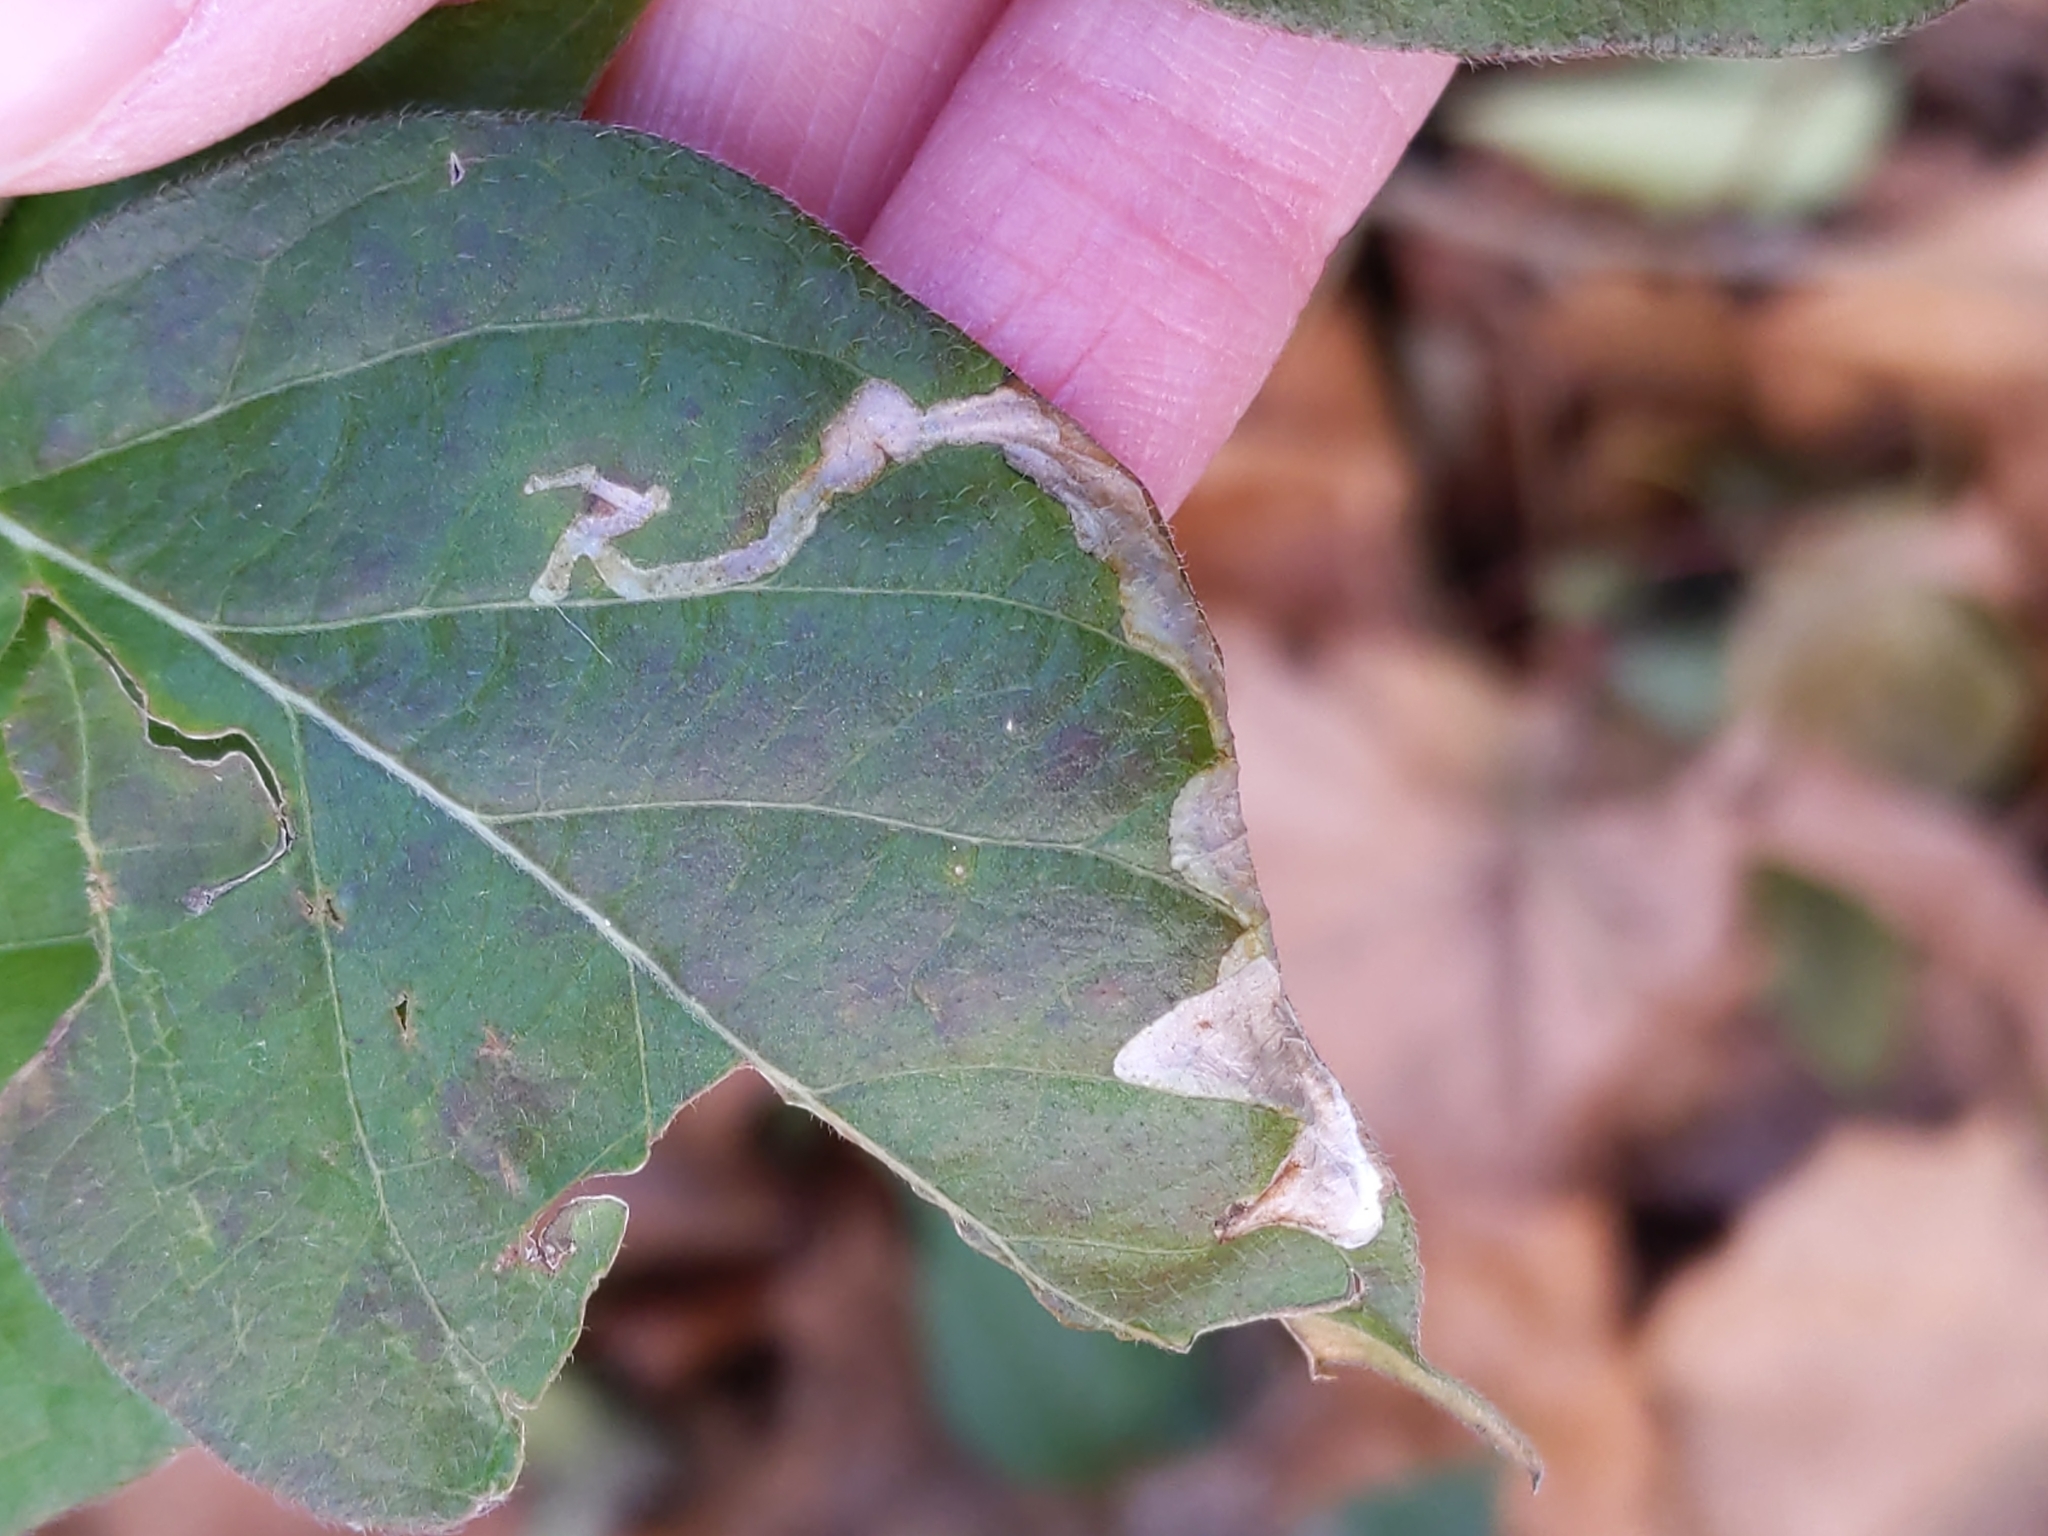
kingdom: Animalia
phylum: Arthropoda
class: Insecta
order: Diptera
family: Agromyzidae
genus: Aulagromyza
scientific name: Aulagromyza
